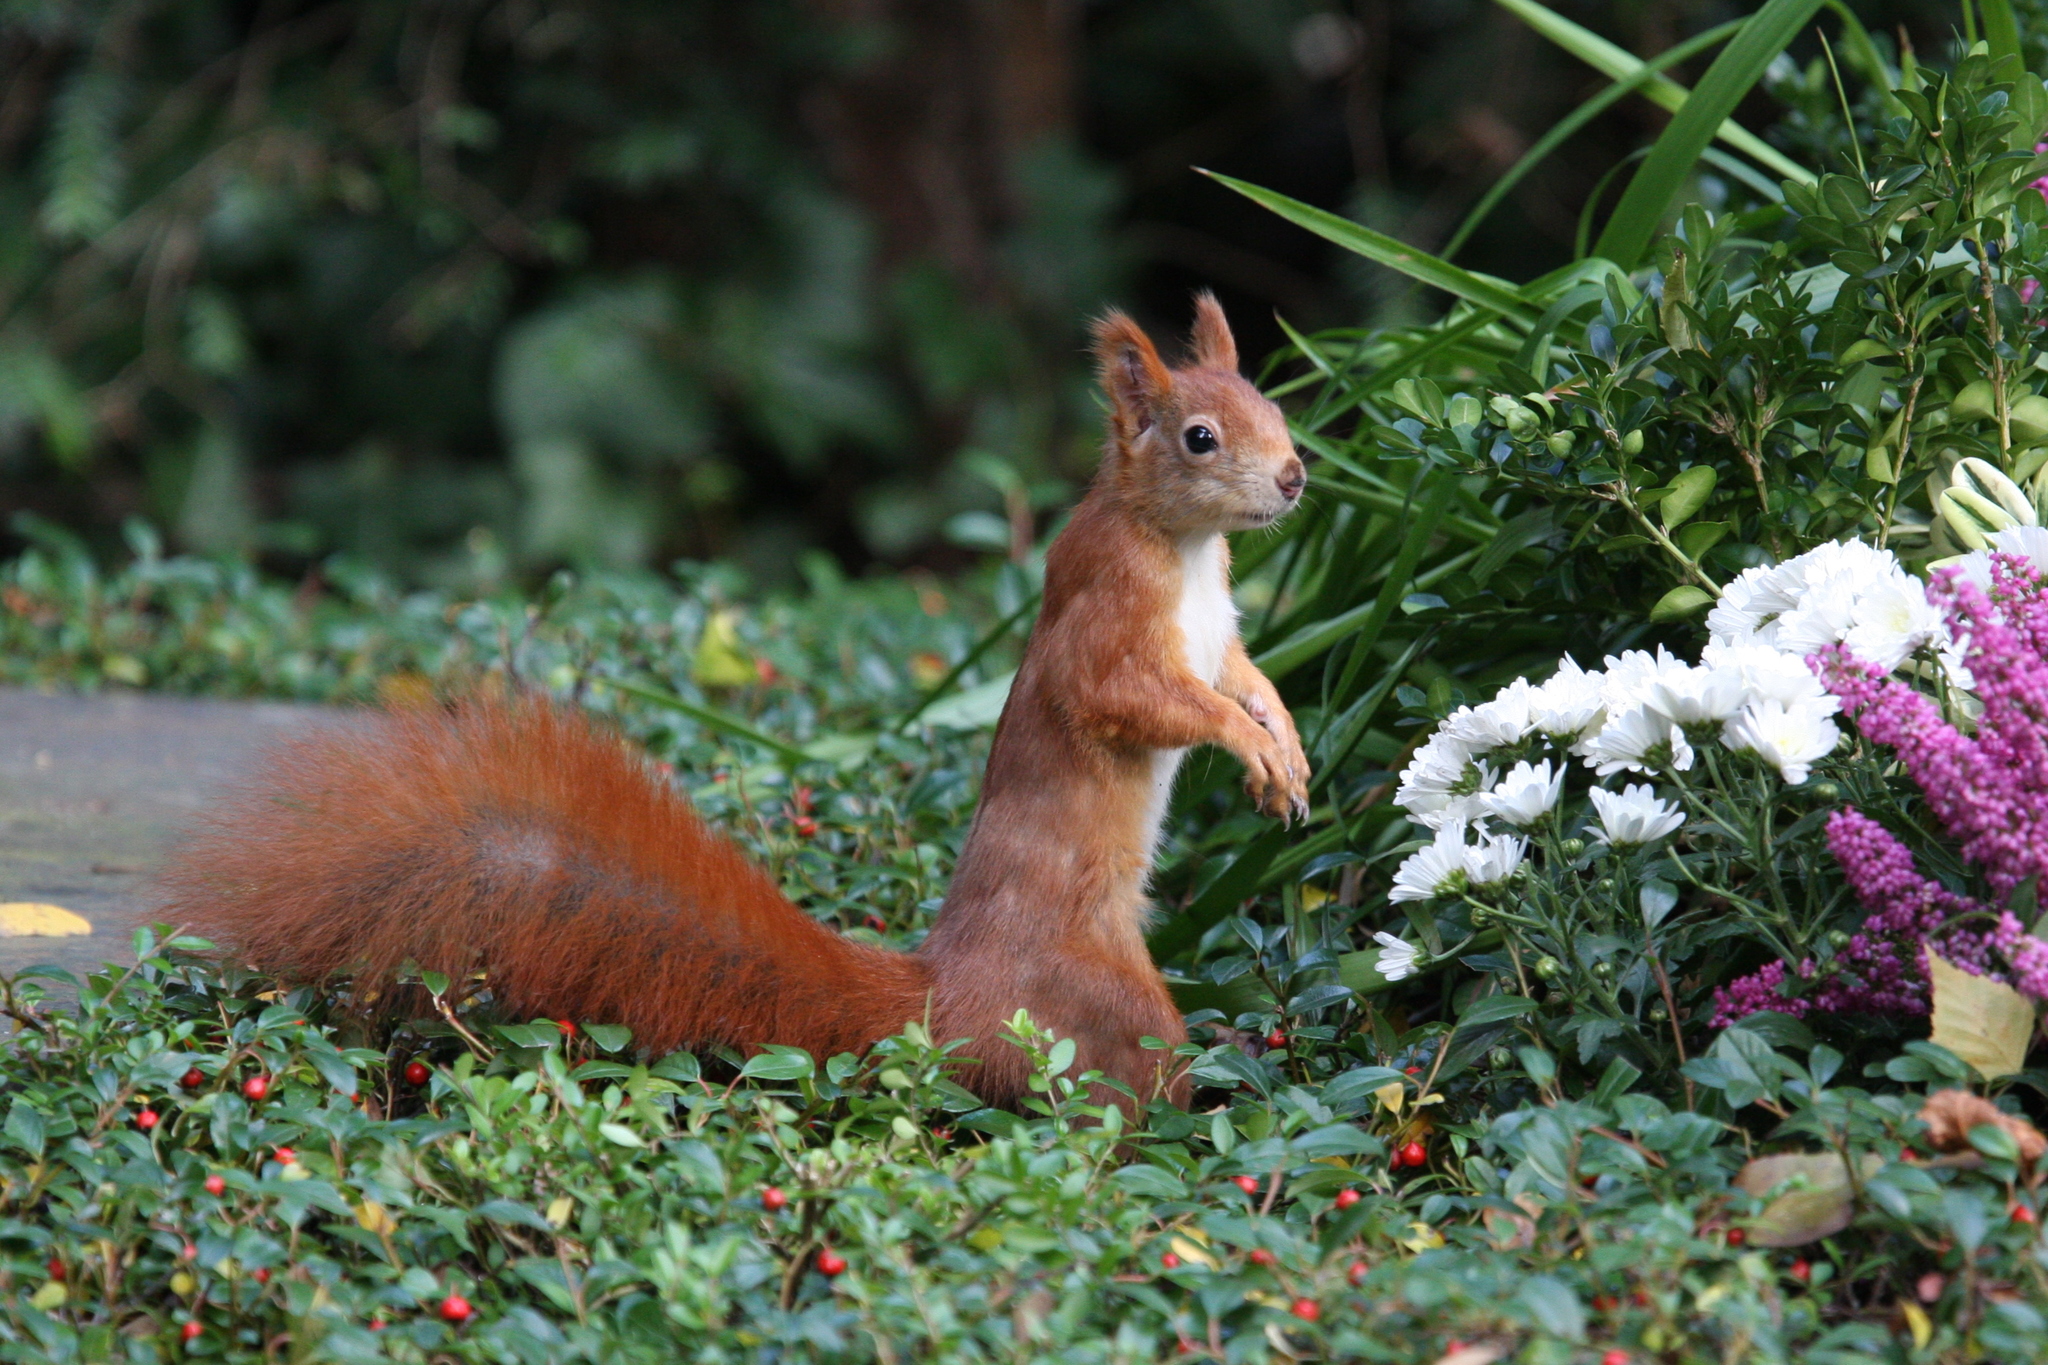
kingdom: Animalia
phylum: Chordata
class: Mammalia
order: Rodentia
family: Sciuridae
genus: Sciurus
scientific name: Sciurus vulgaris
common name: Eurasian red squirrel
